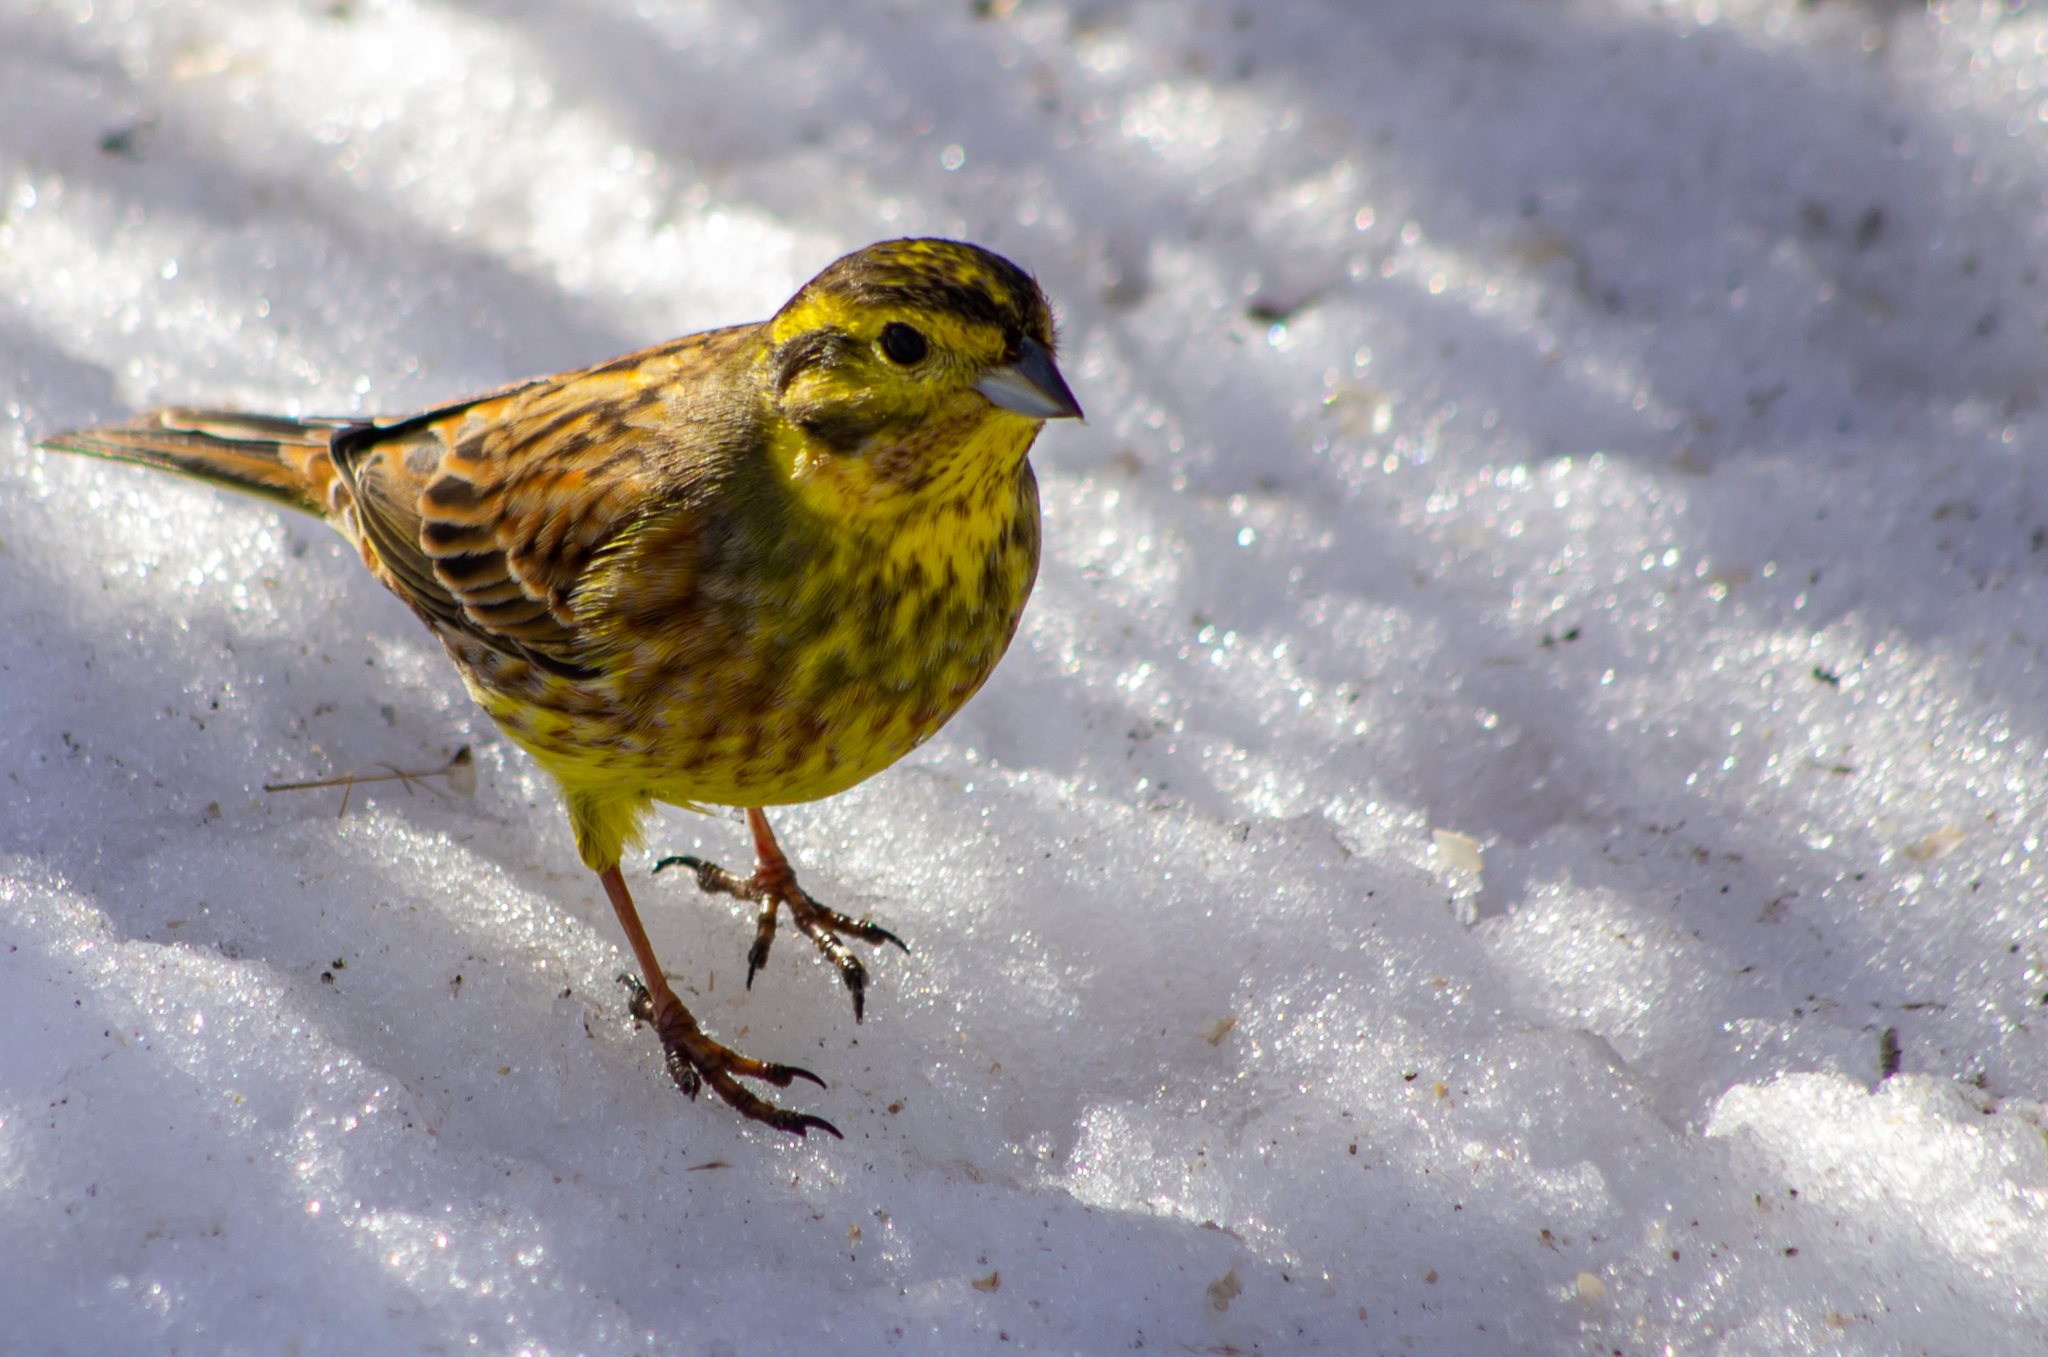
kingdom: Animalia
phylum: Chordata
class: Aves
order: Passeriformes
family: Emberizidae
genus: Emberiza
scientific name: Emberiza citrinella
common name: Yellowhammer
